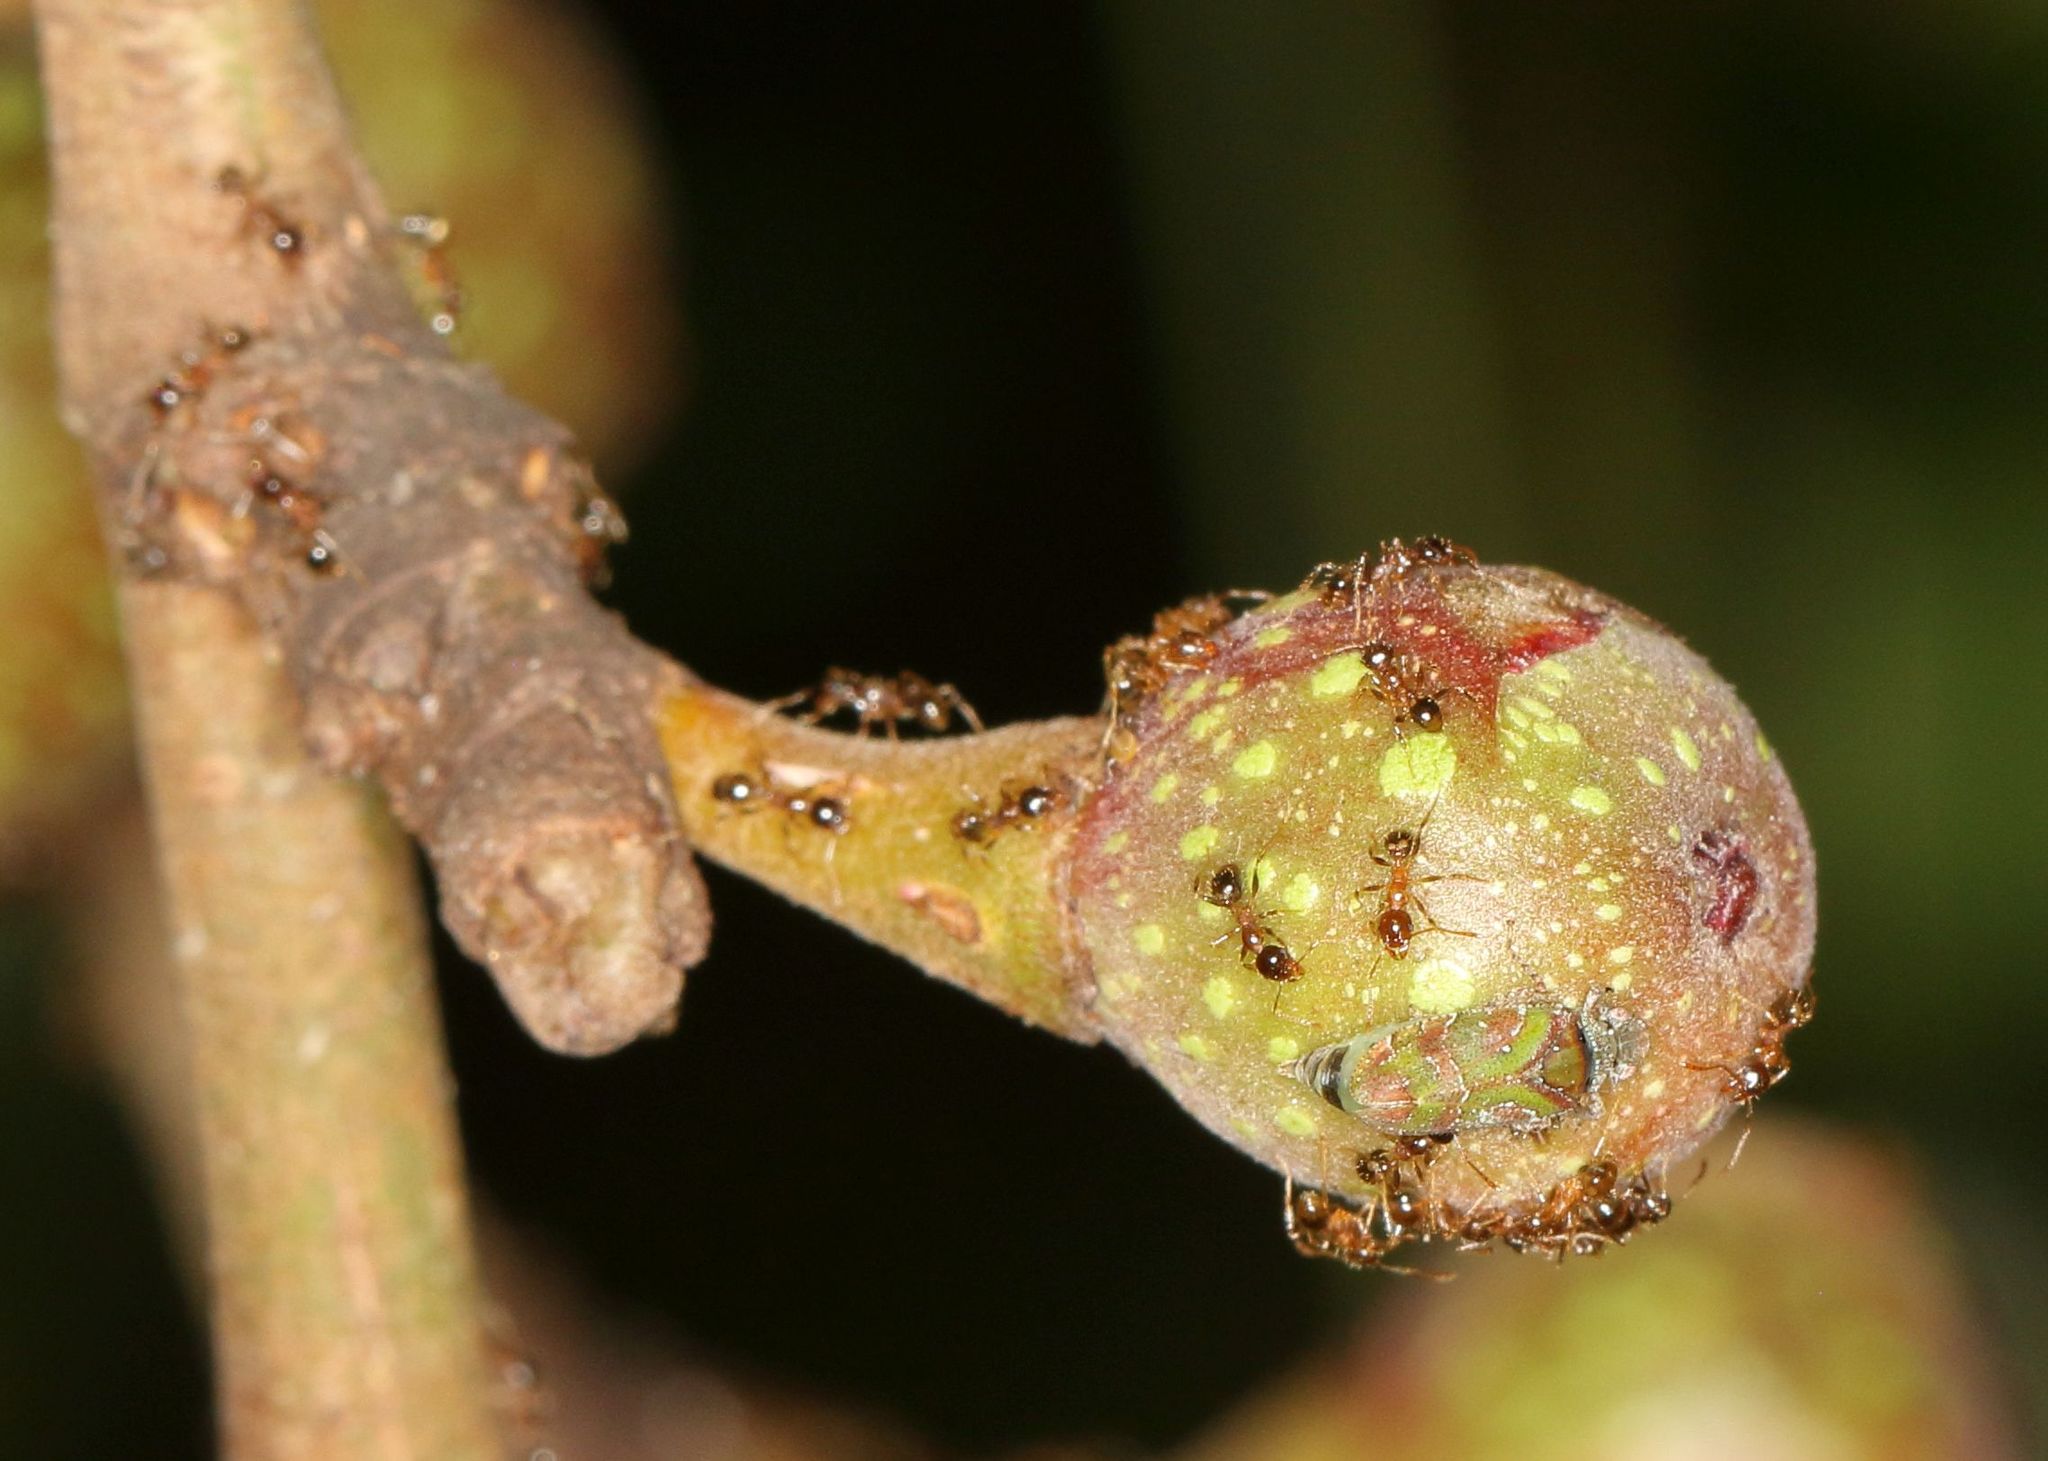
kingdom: Animalia
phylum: Arthropoda
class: Insecta
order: Hemiptera
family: Tettigometridae
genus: Nototettigometra
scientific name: Nototettigometra patruelis
